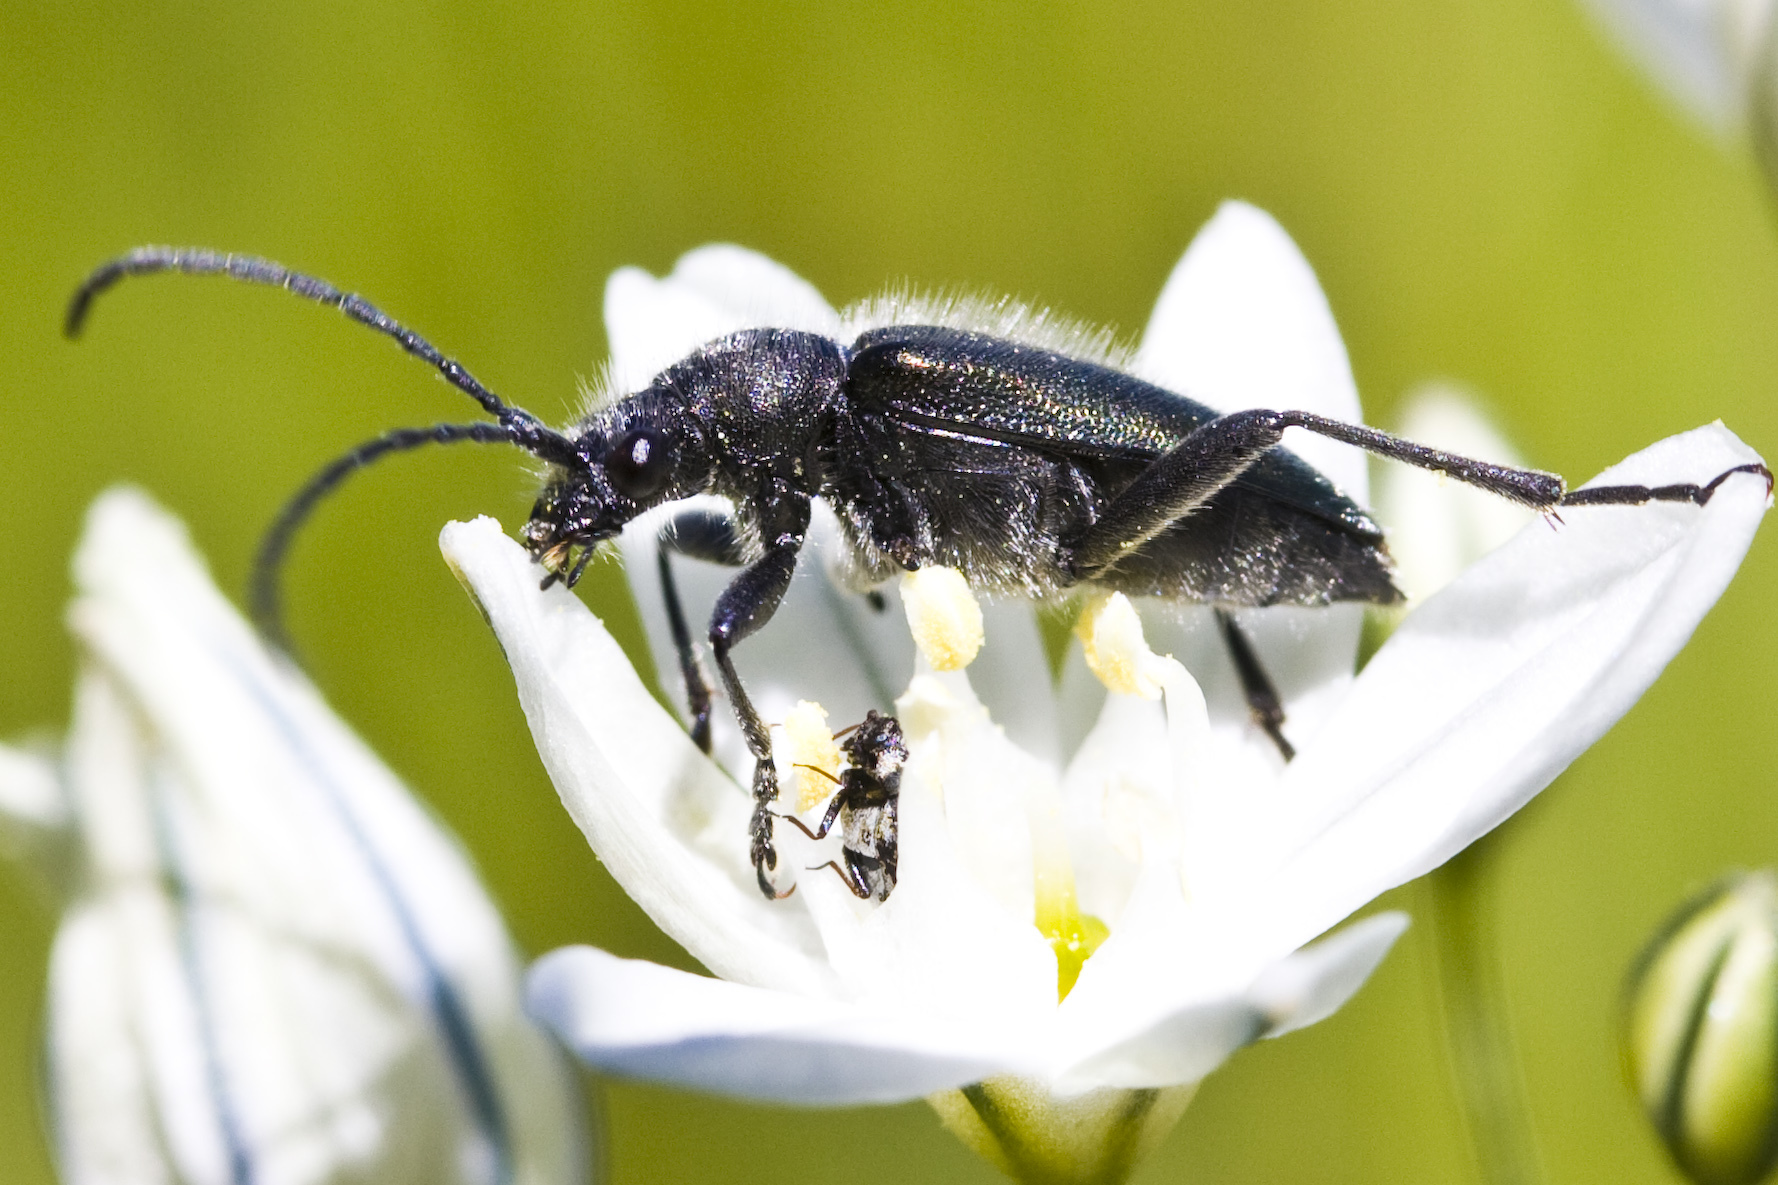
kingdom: Animalia
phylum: Arthropoda
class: Insecta
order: Coleoptera
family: Cerambycidae
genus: Brachysomida
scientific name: Brachysomida californica
